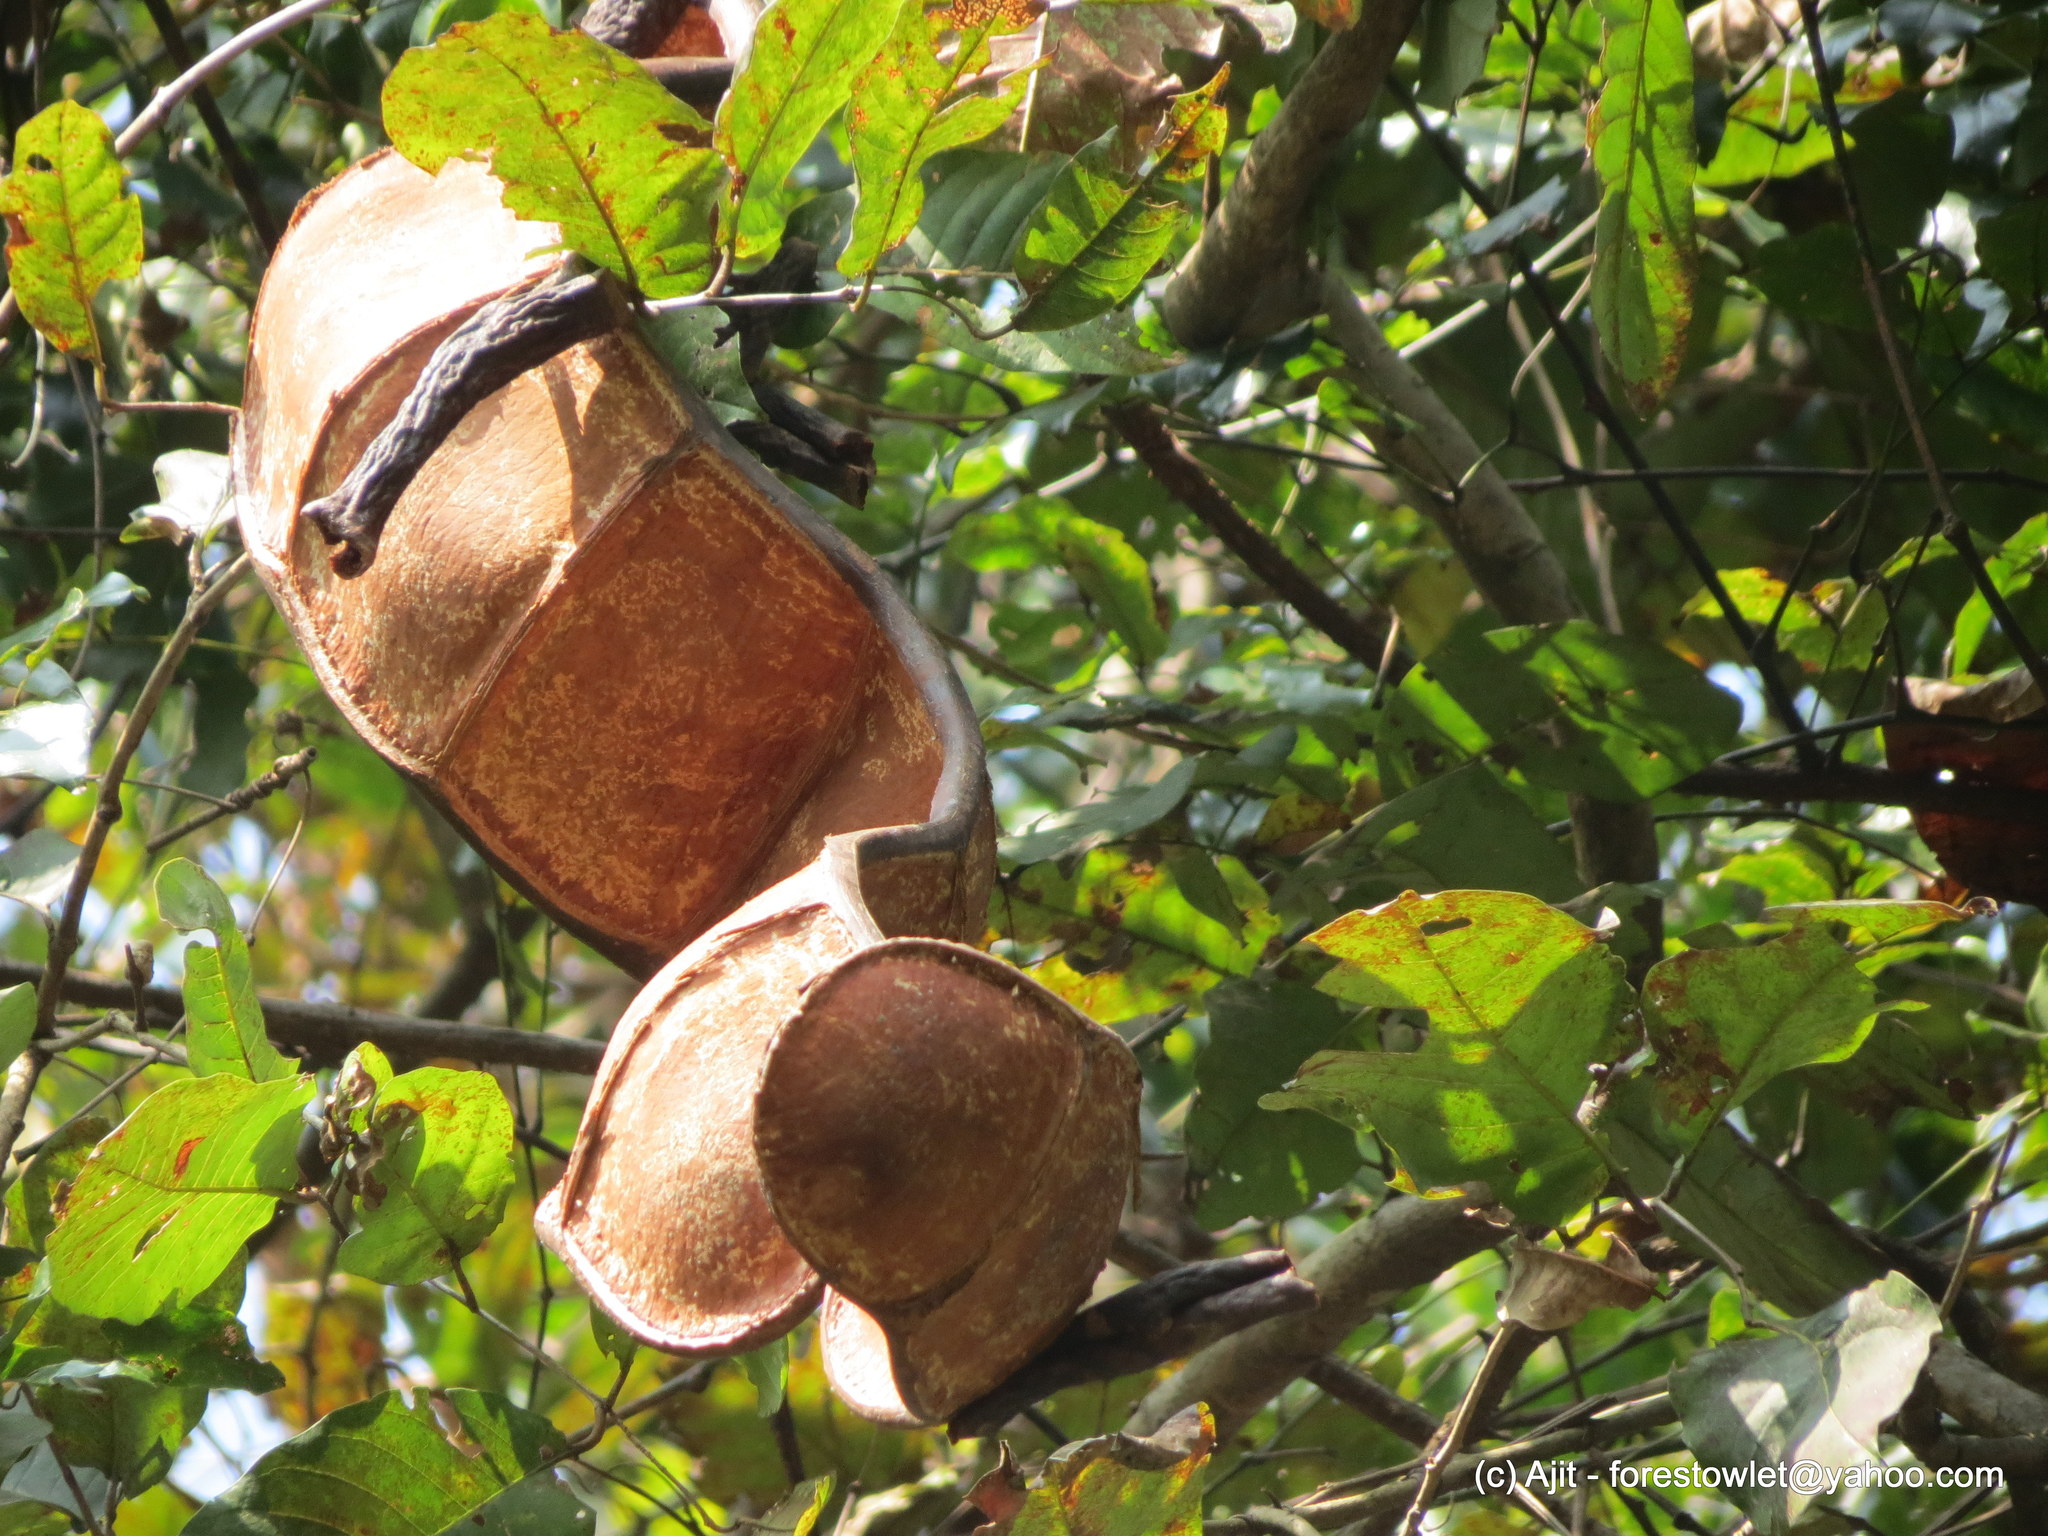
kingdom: Plantae
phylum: Tracheophyta
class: Magnoliopsida
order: Fabales
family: Fabaceae
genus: Entada
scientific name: Entada rheedei
